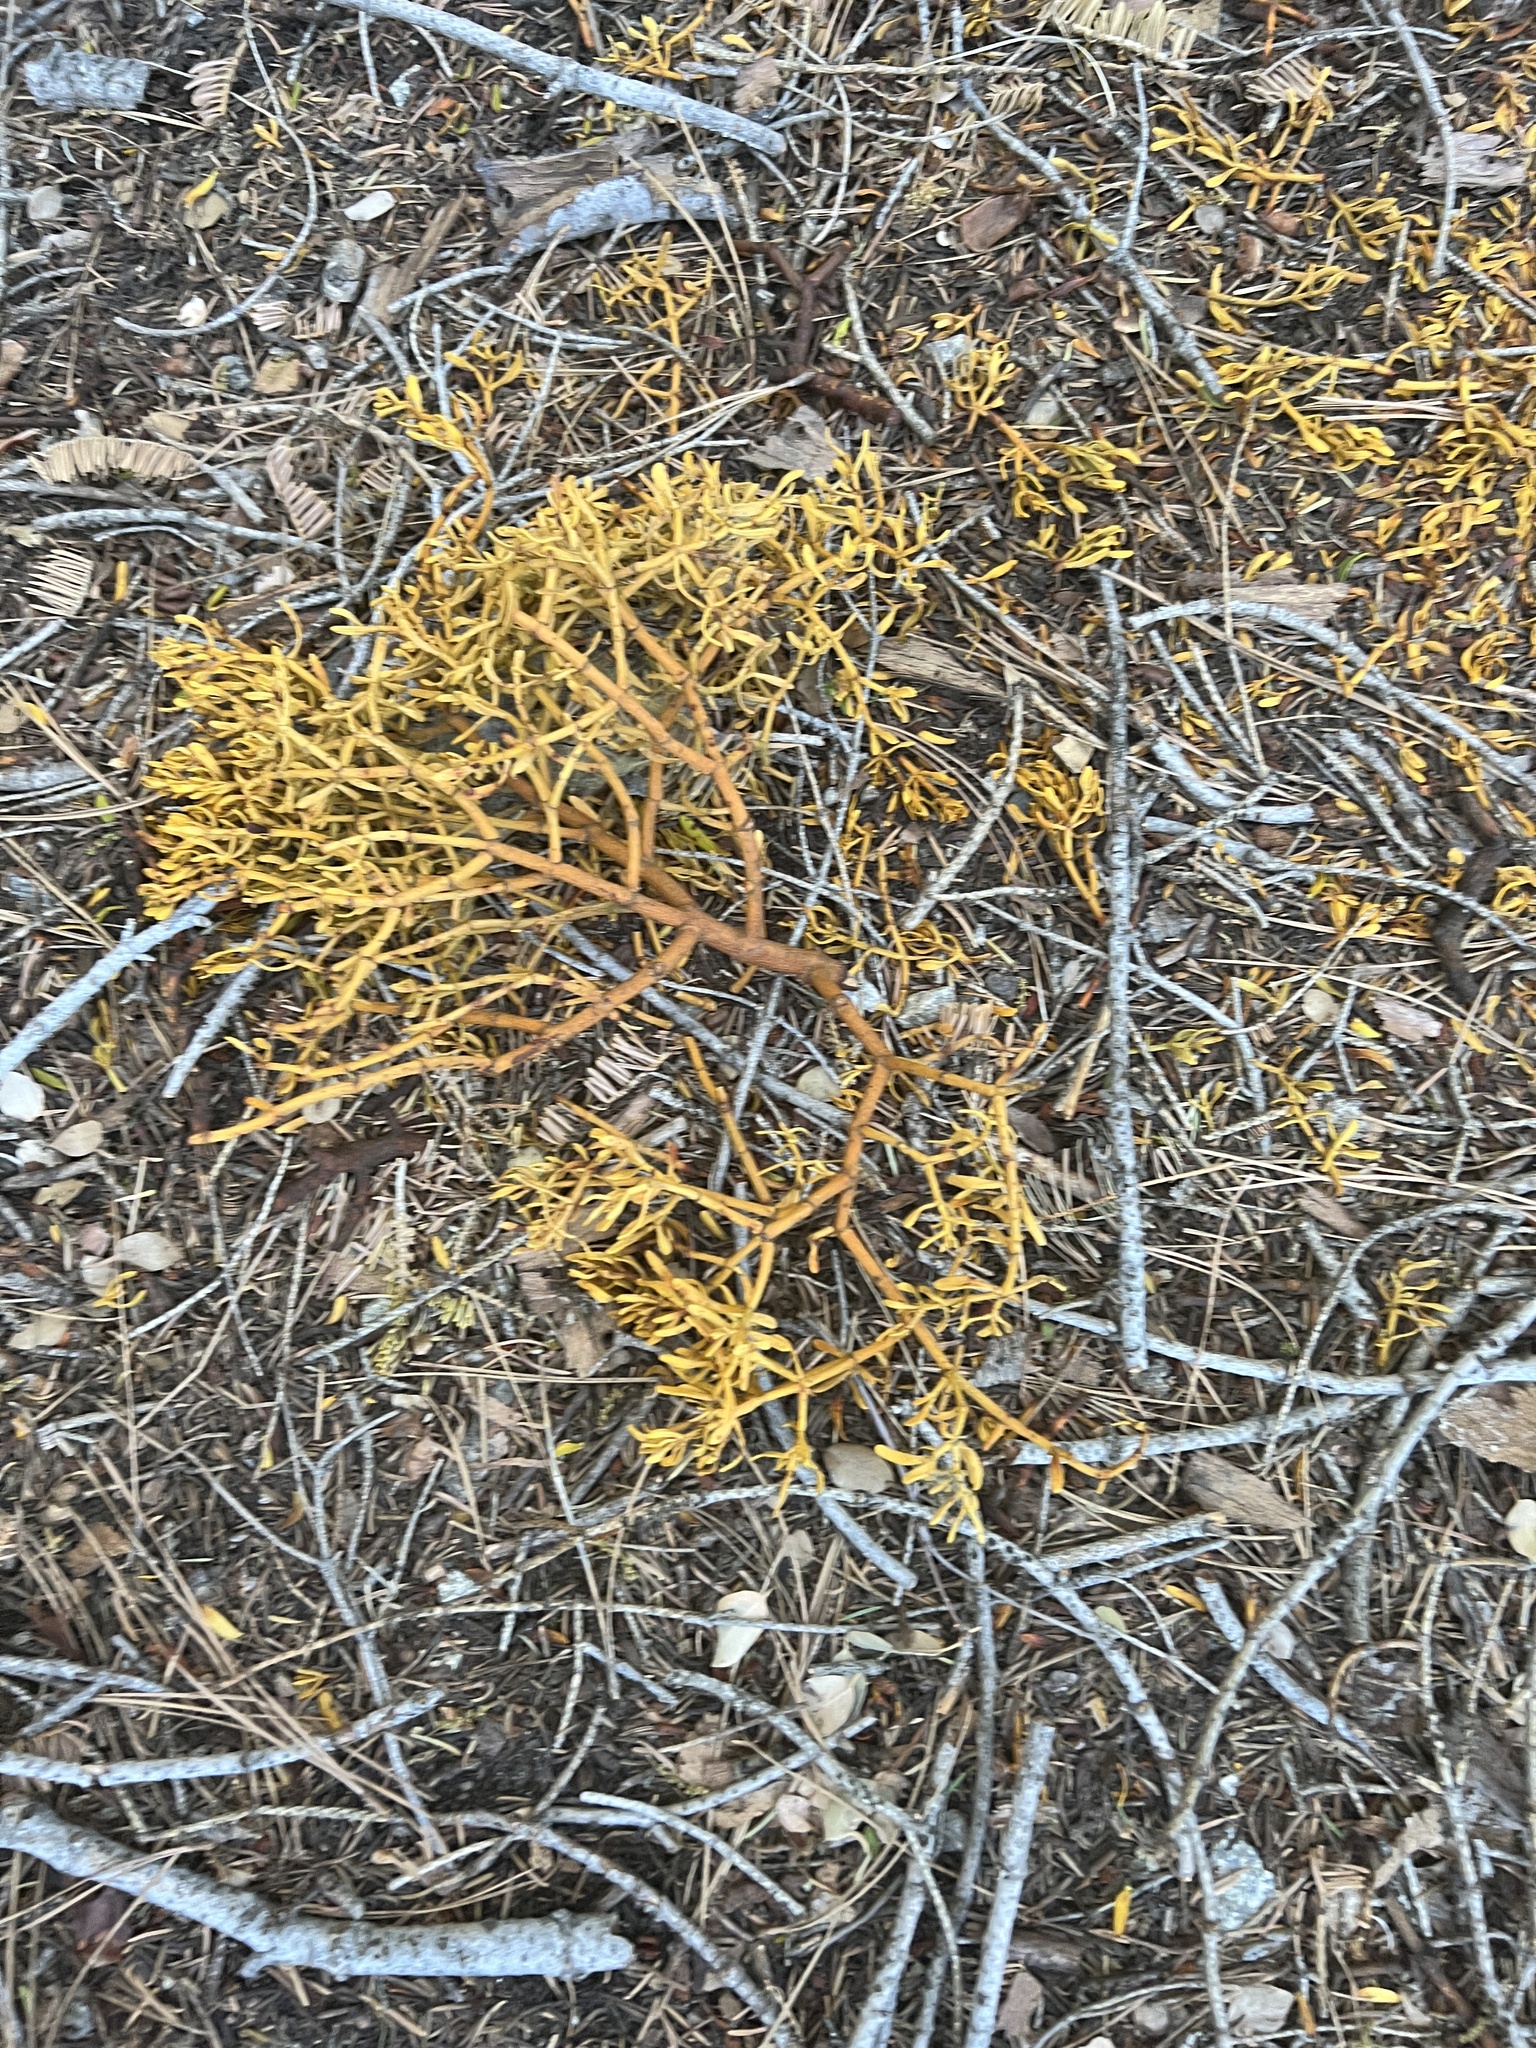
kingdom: Plantae
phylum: Tracheophyta
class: Magnoliopsida
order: Santalales
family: Viscaceae
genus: Phoradendron
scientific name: Phoradendron bolleanum
